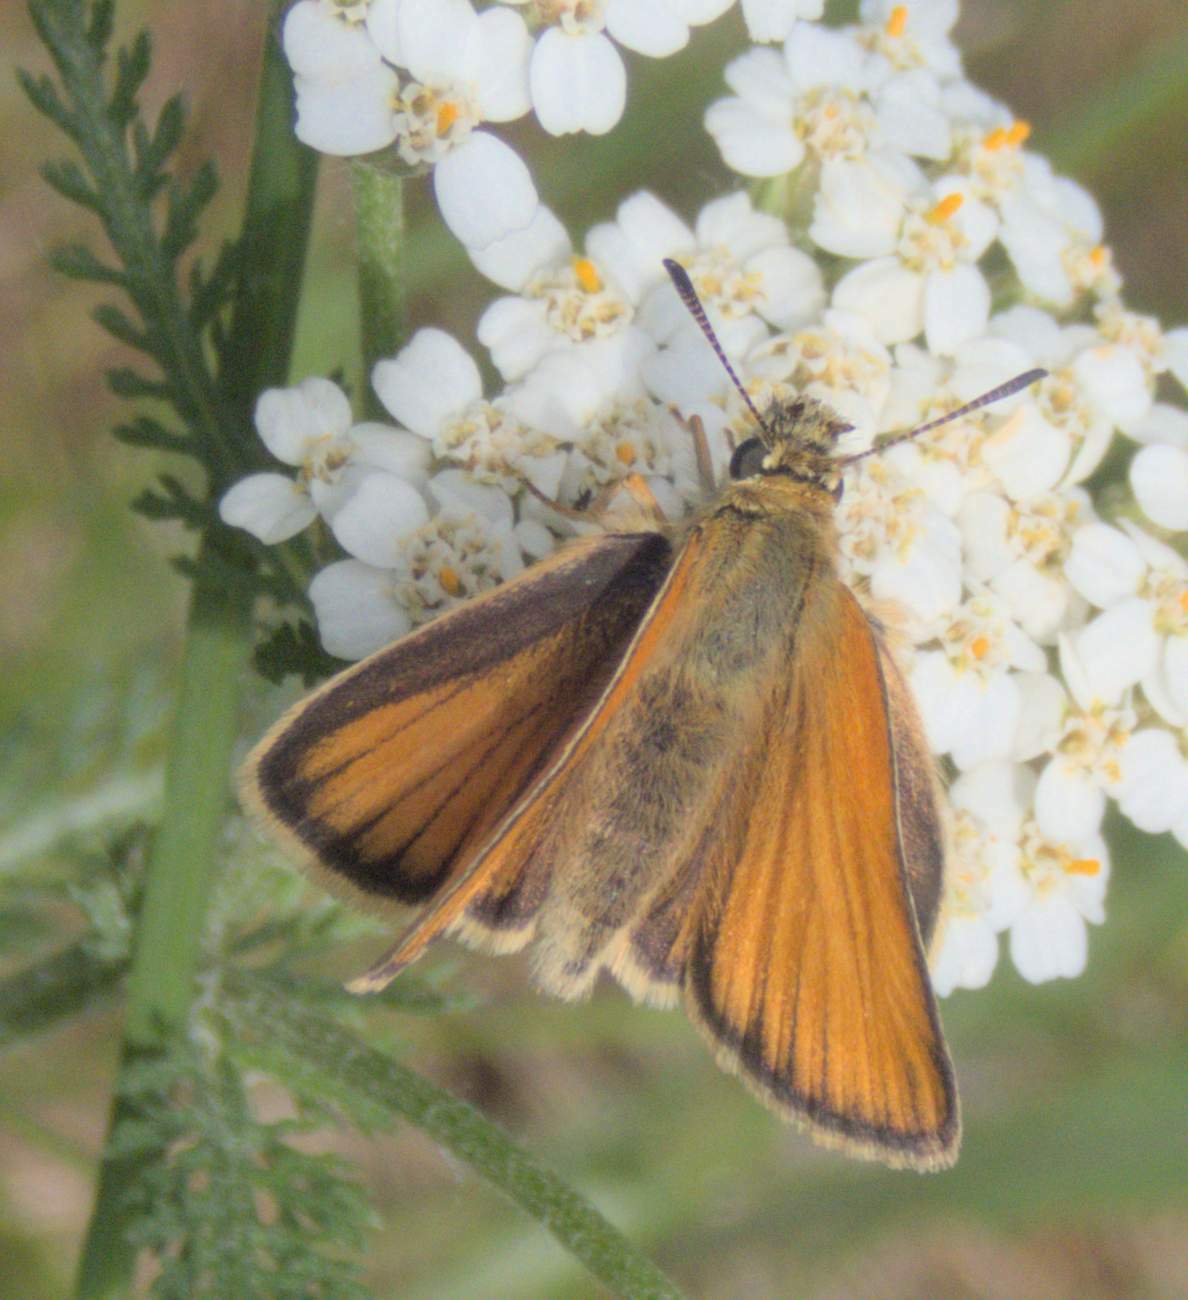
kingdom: Animalia
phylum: Arthropoda
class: Insecta
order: Lepidoptera
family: Hesperiidae
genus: Thymelicus
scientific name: Thymelicus lineola
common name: Essex skipper
